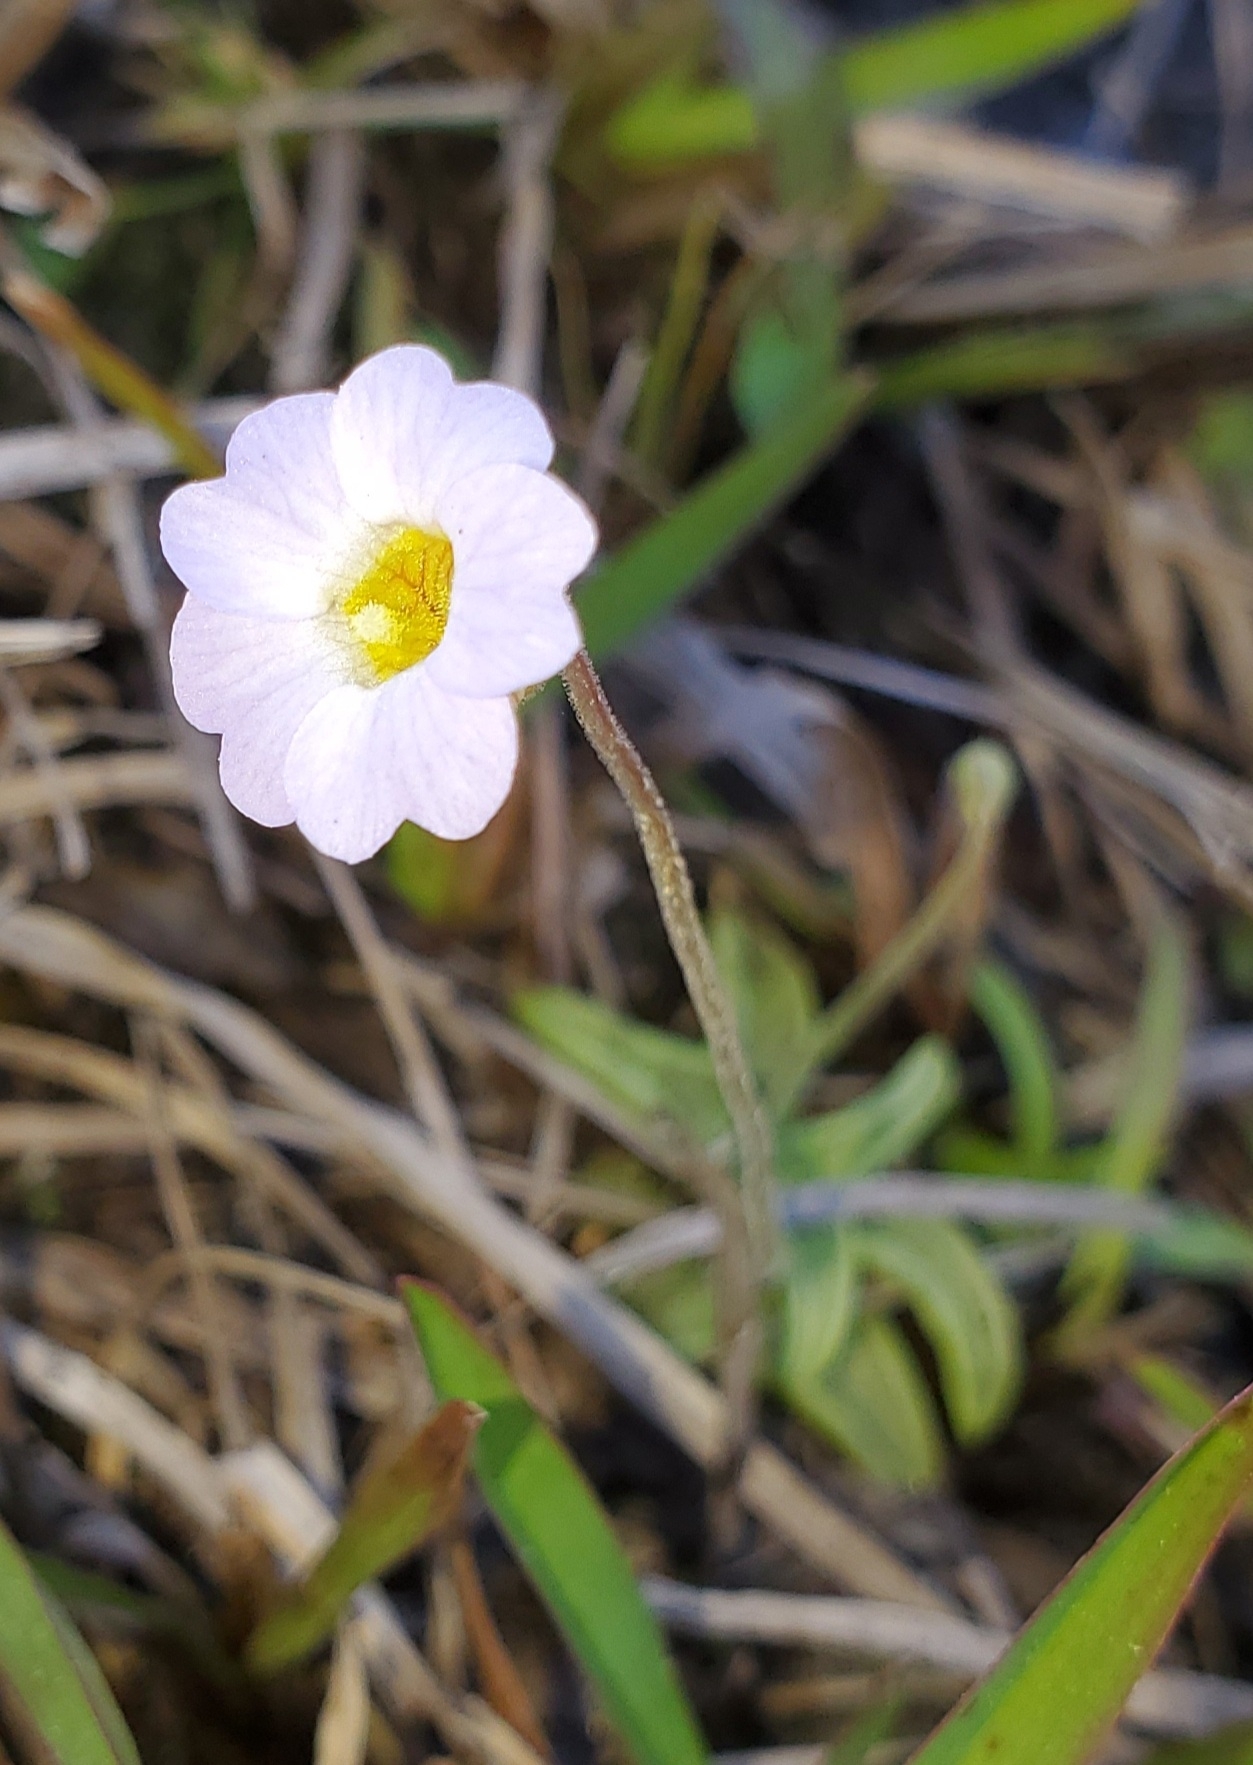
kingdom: Plantae
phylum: Tracheophyta
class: Magnoliopsida
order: Lamiales
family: Lentibulariaceae
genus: Pinguicula
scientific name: Pinguicula pumila
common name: Small butterwort
